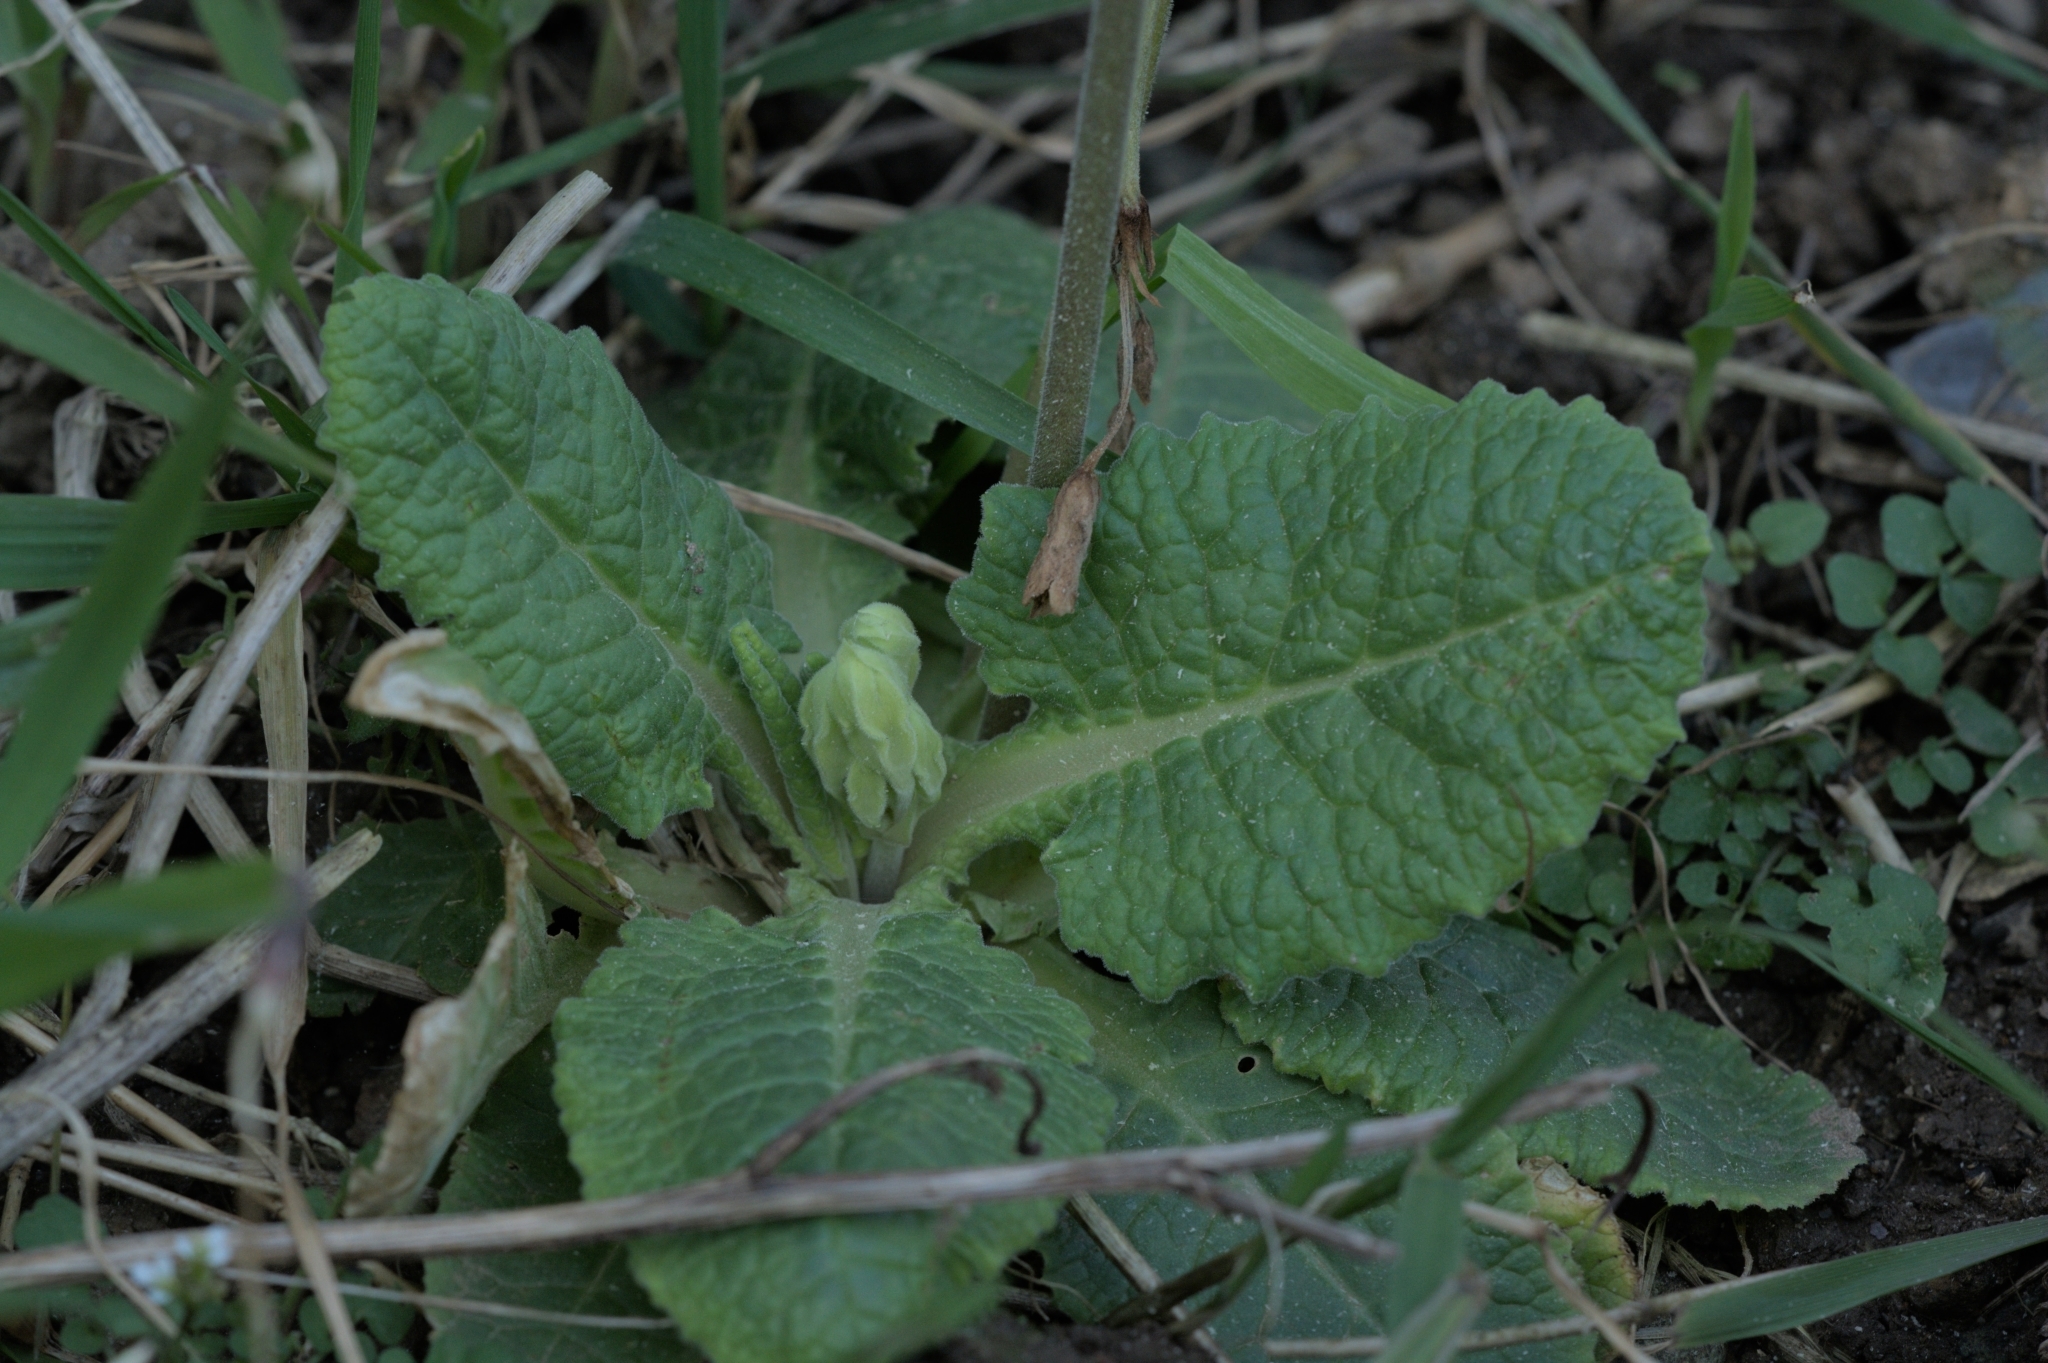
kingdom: Plantae
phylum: Tracheophyta
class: Magnoliopsida
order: Ericales
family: Primulaceae
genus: Primula
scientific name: Primula veris
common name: Cowslip
